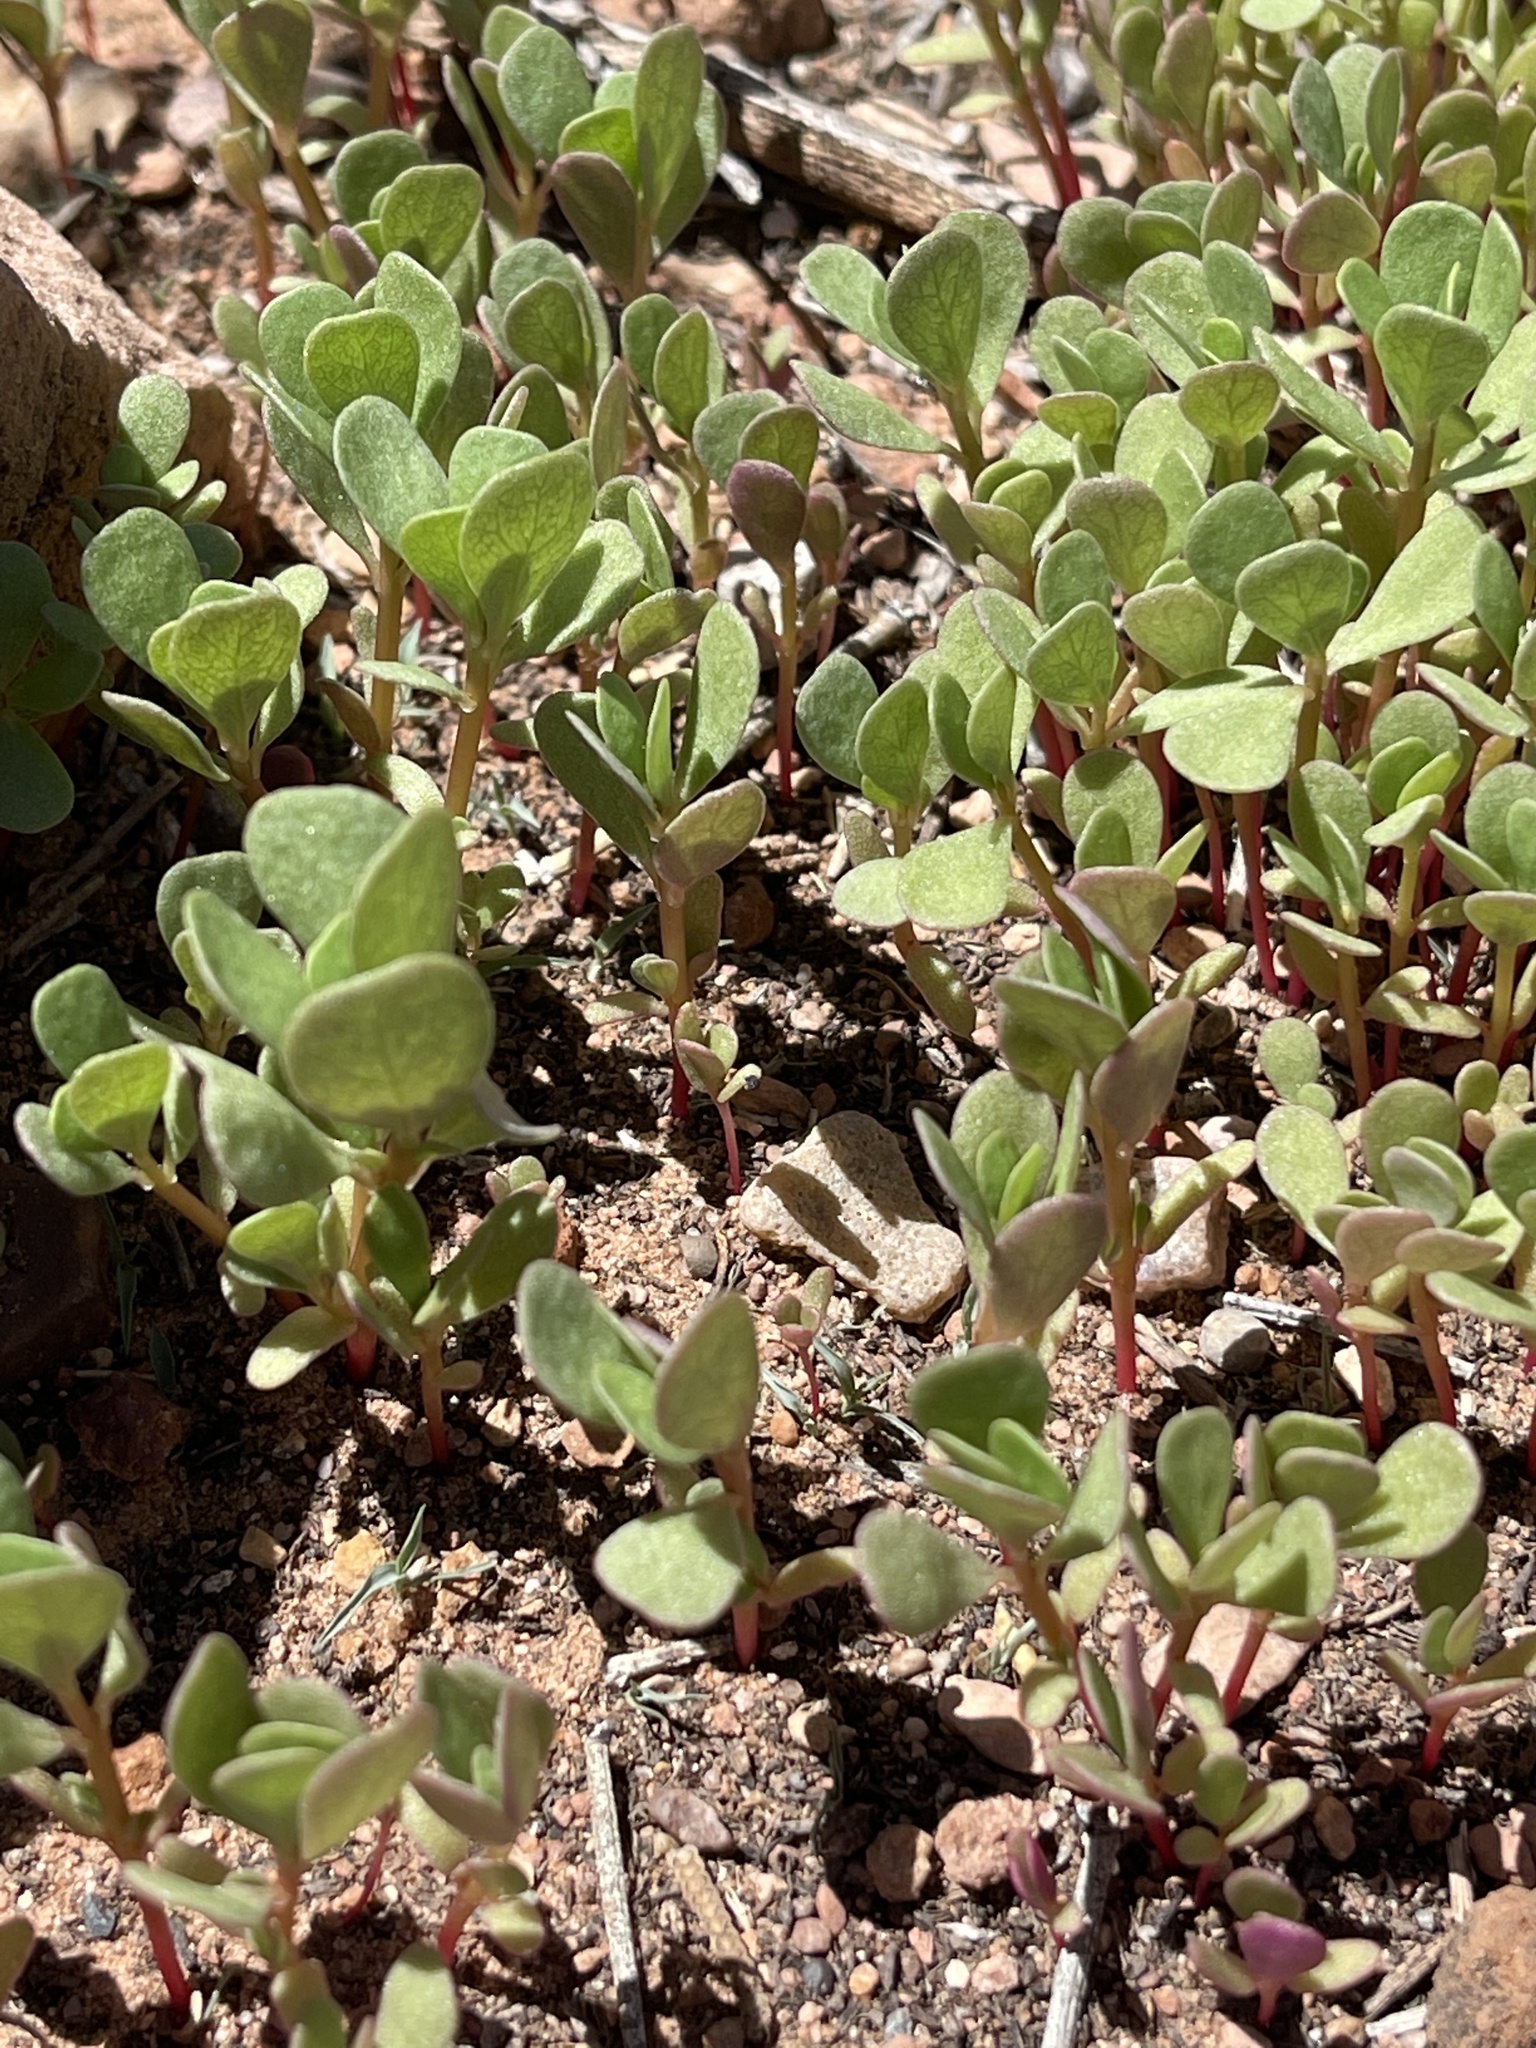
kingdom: Plantae
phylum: Tracheophyta
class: Magnoliopsida
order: Caryophyllales
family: Portulacaceae
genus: Portulaca
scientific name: Portulaca oleracea
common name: Common purslane
